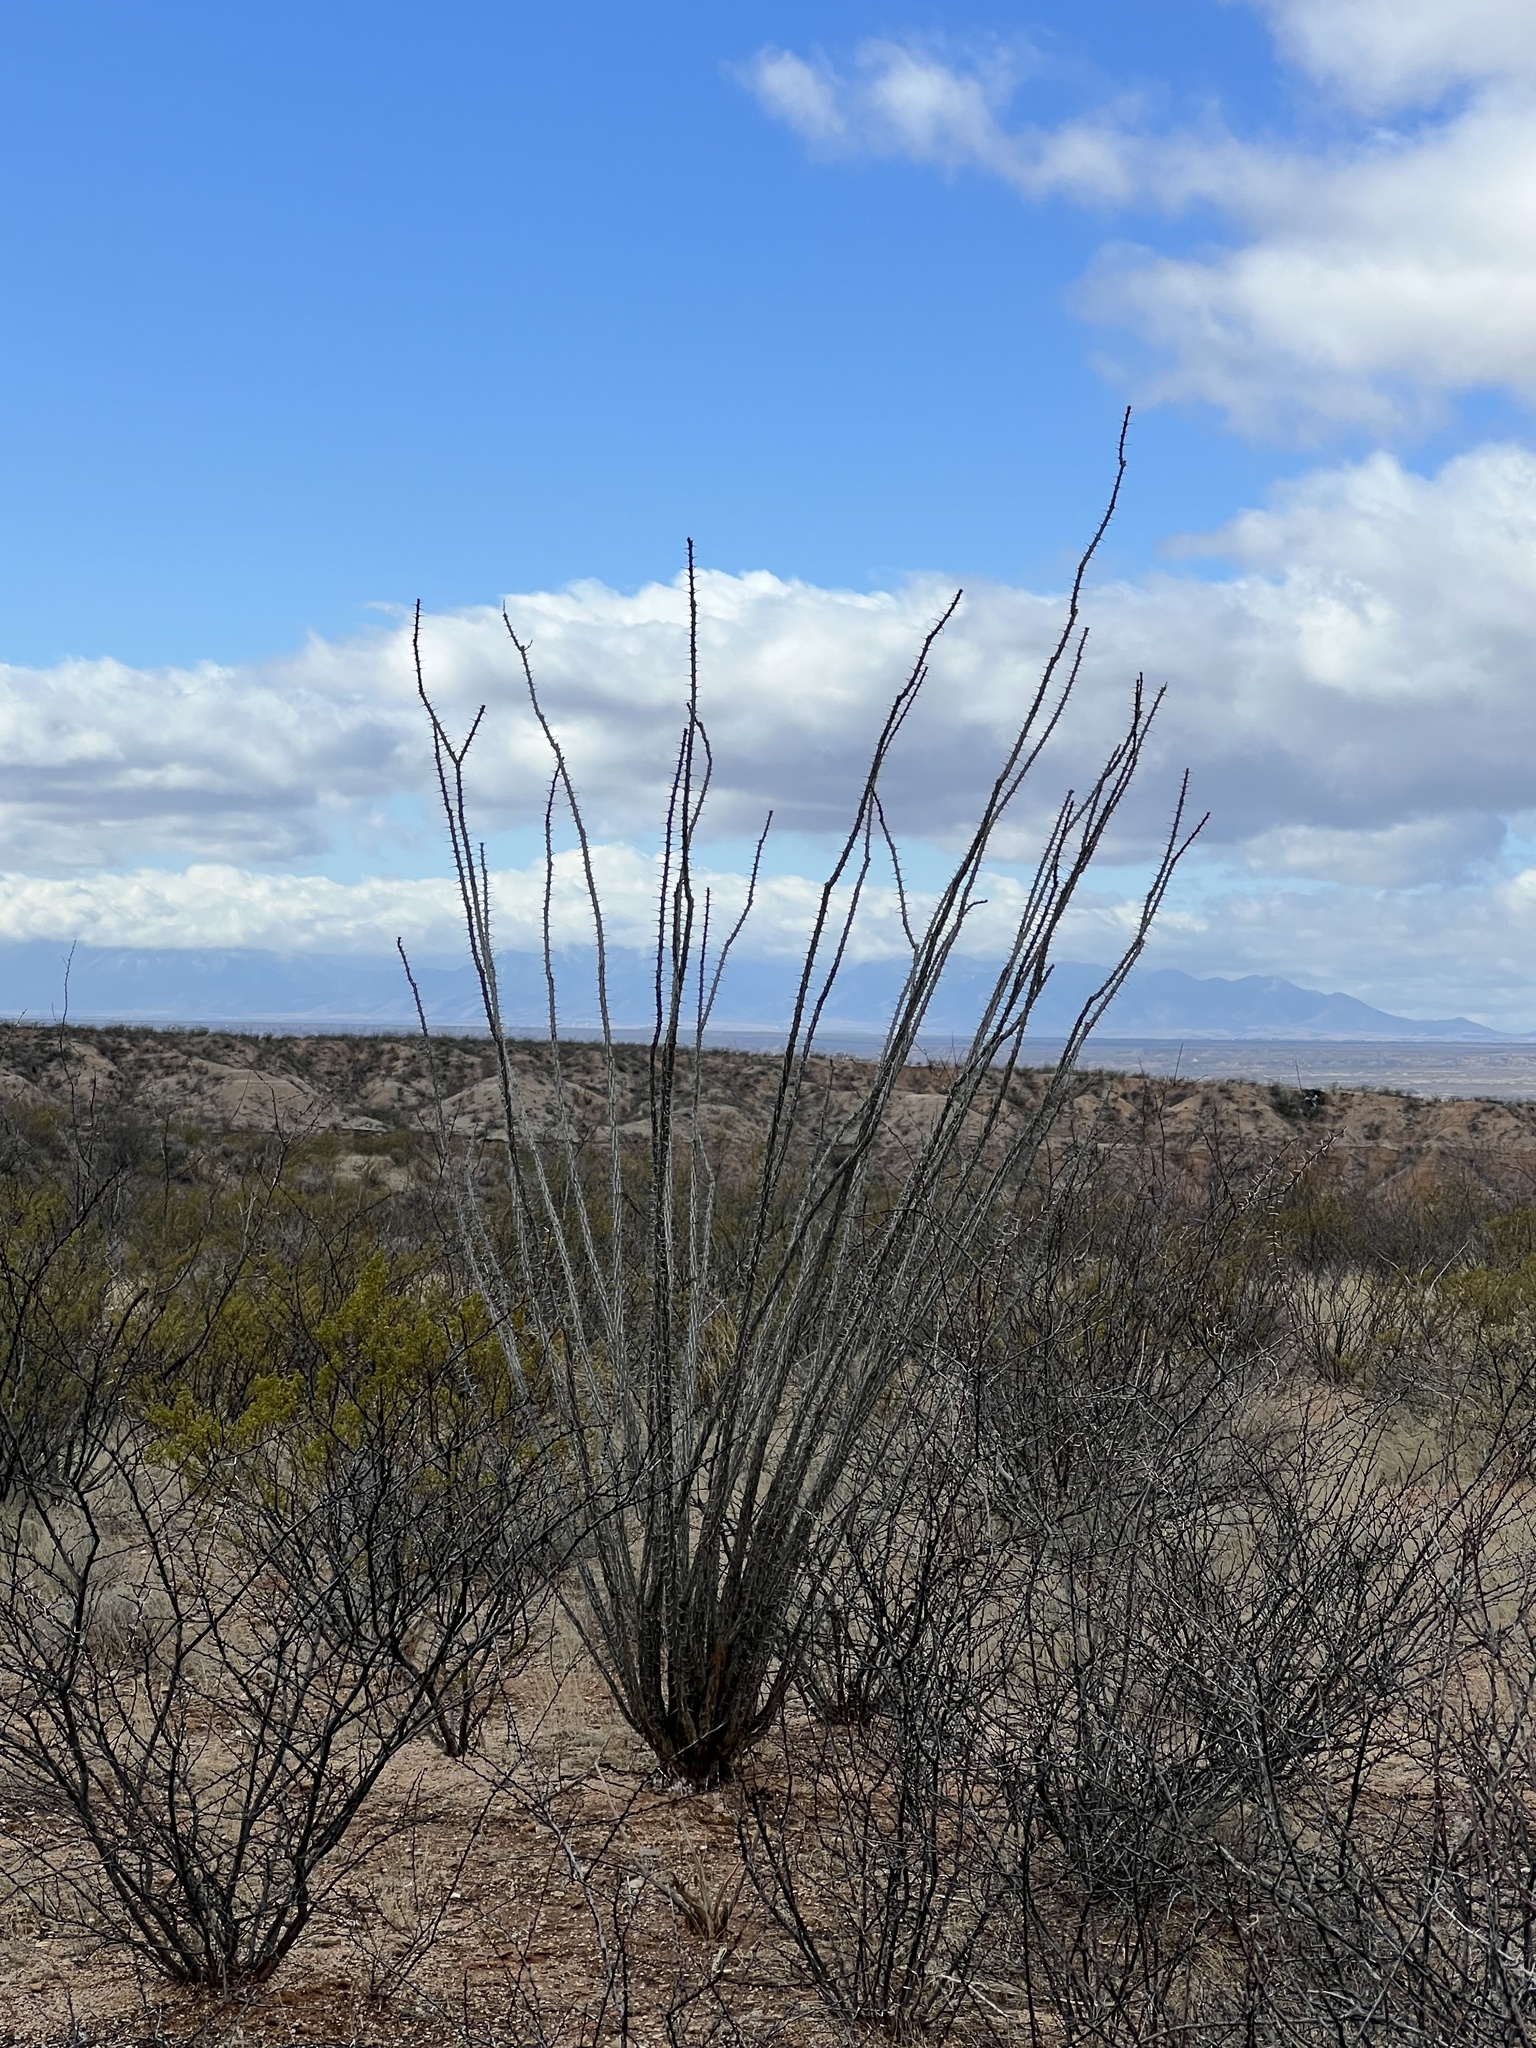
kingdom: Plantae
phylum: Tracheophyta
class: Magnoliopsida
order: Ericales
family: Fouquieriaceae
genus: Fouquieria
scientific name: Fouquieria splendens
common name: Vine-cactus
